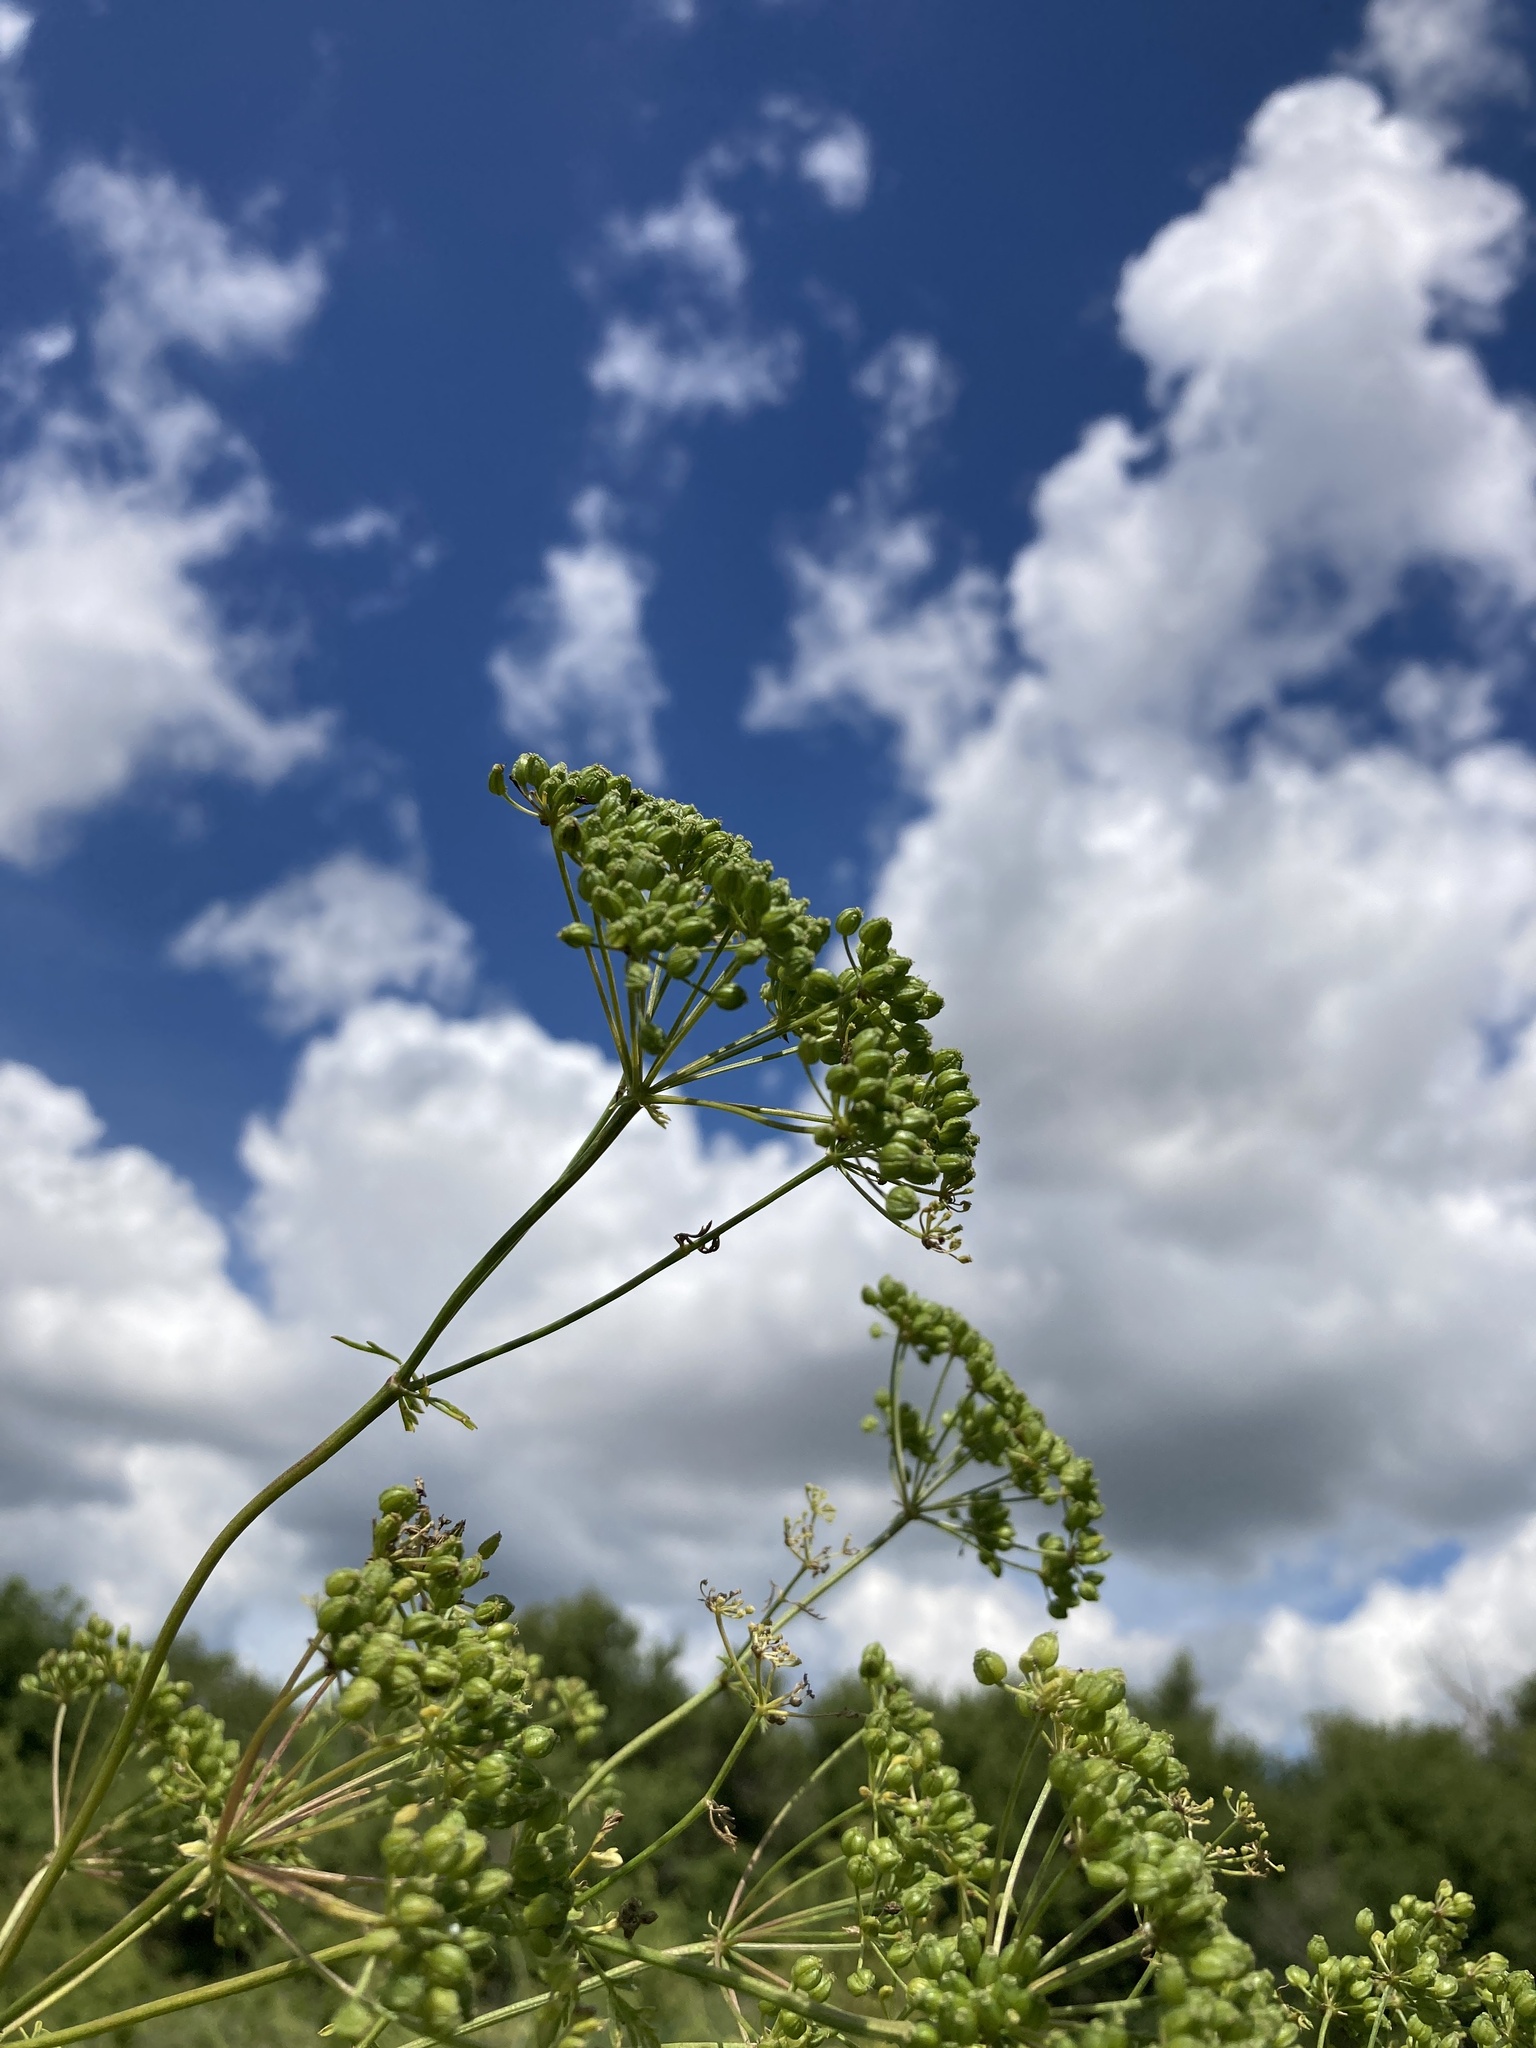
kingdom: Plantae
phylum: Tracheophyta
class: Magnoliopsida
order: Apiales
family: Apiaceae
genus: Conium
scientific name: Conium maculatum
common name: Hemlock
